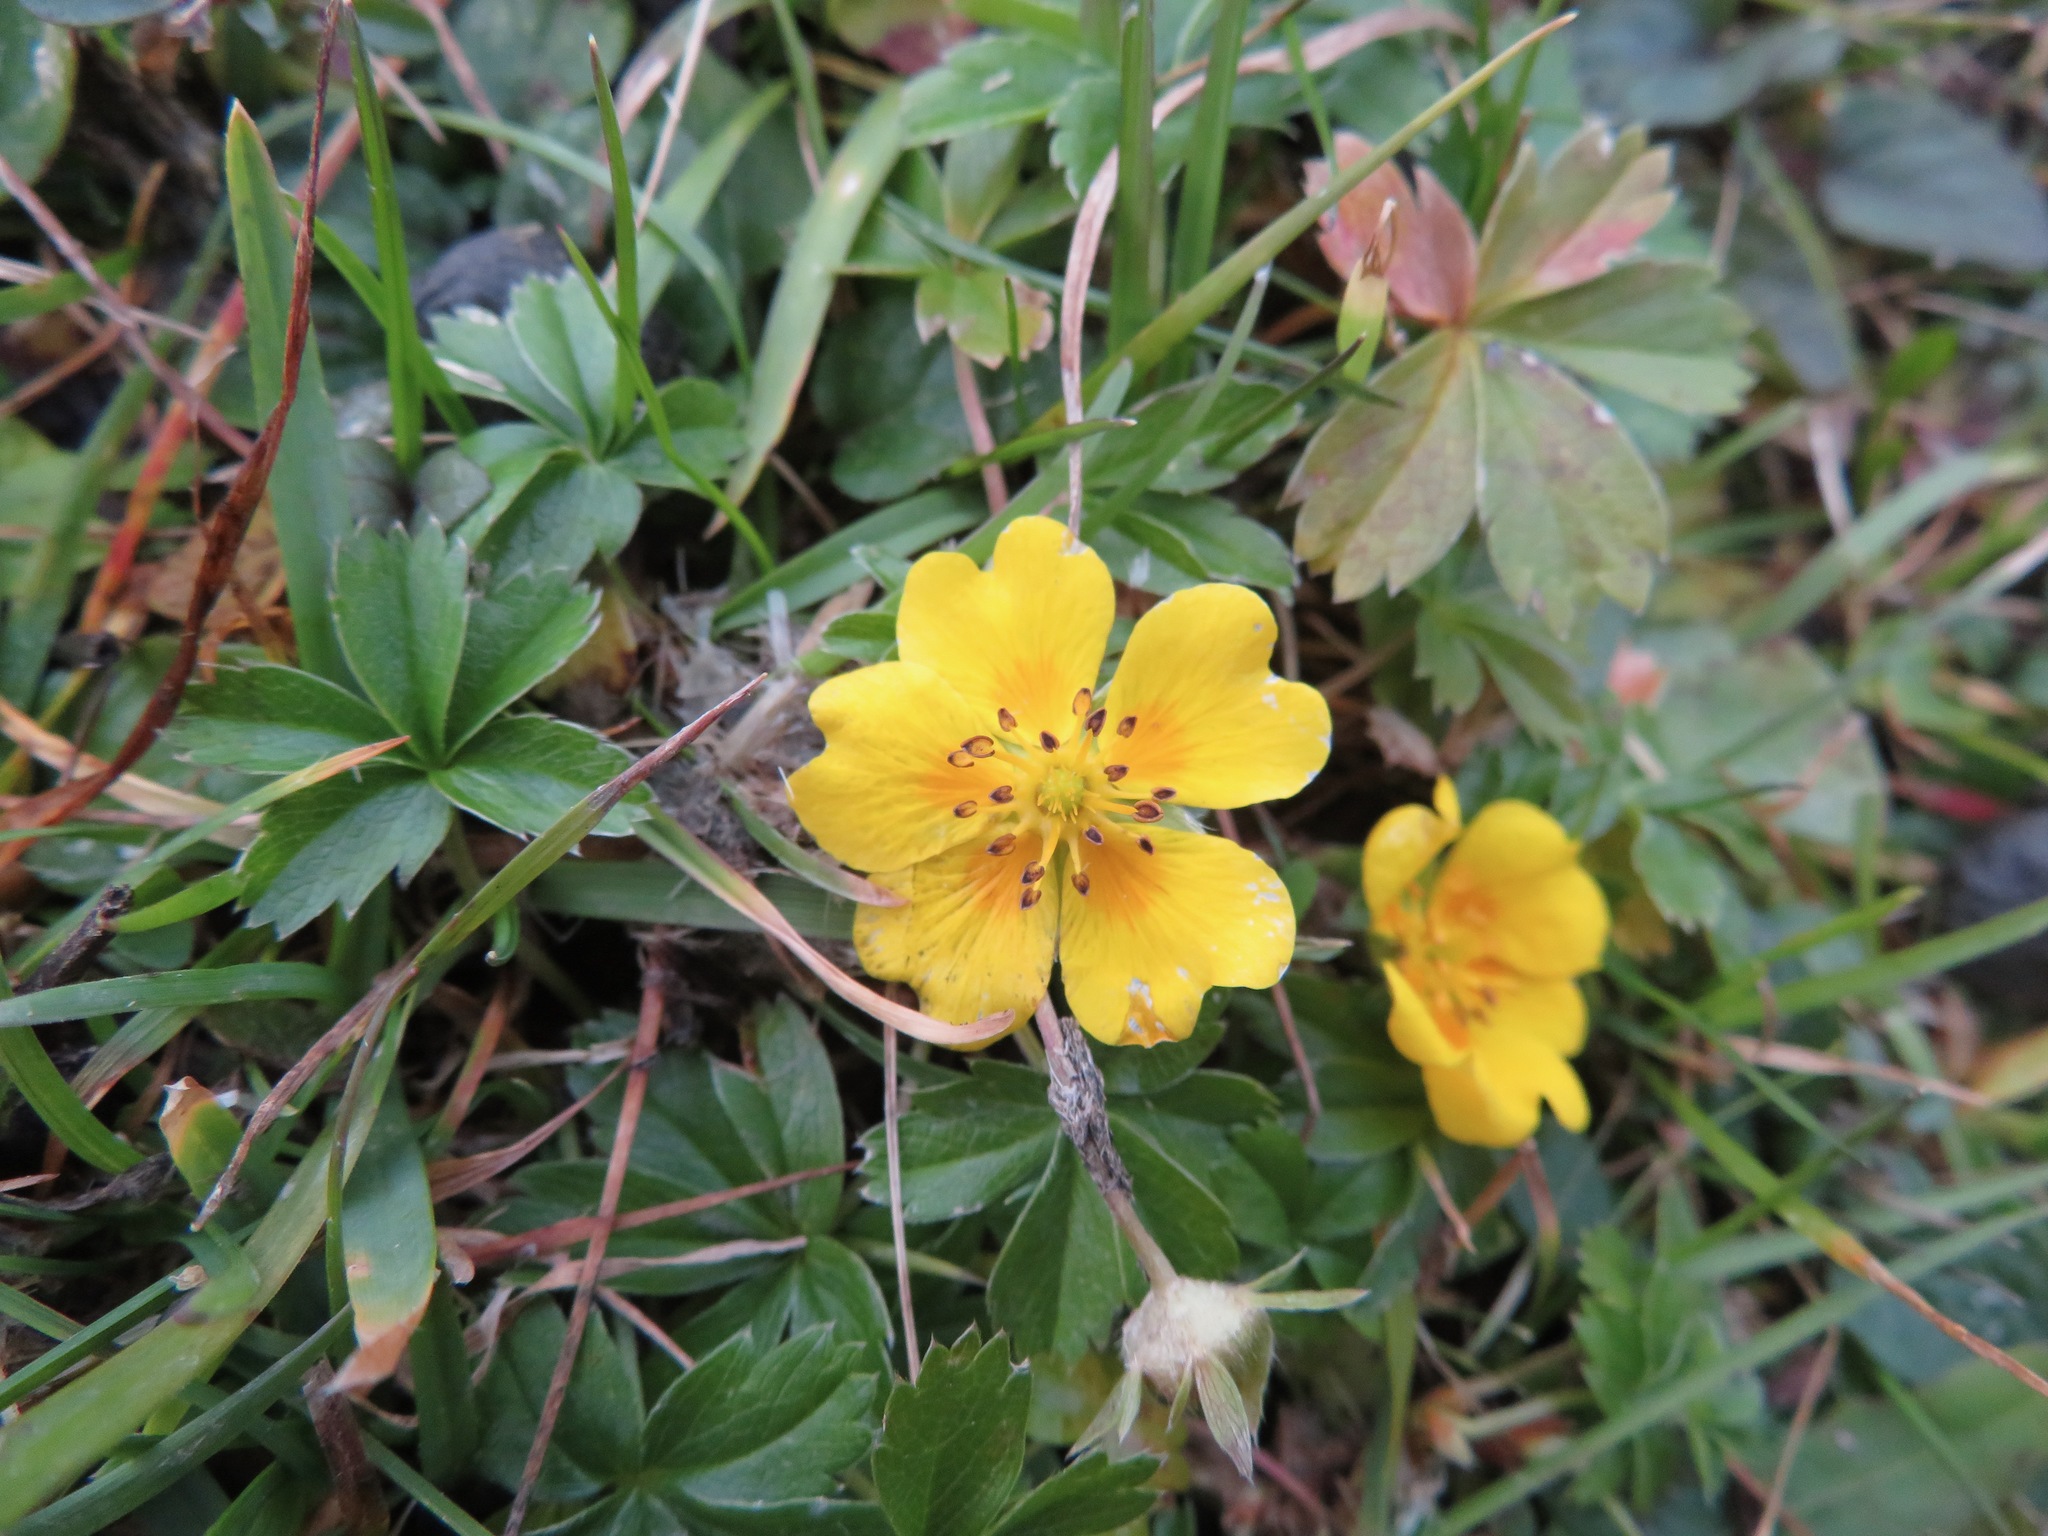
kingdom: Plantae
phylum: Tracheophyta
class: Magnoliopsida
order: Rosales
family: Rosaceae
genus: Potentilla
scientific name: Potentilla aurea
